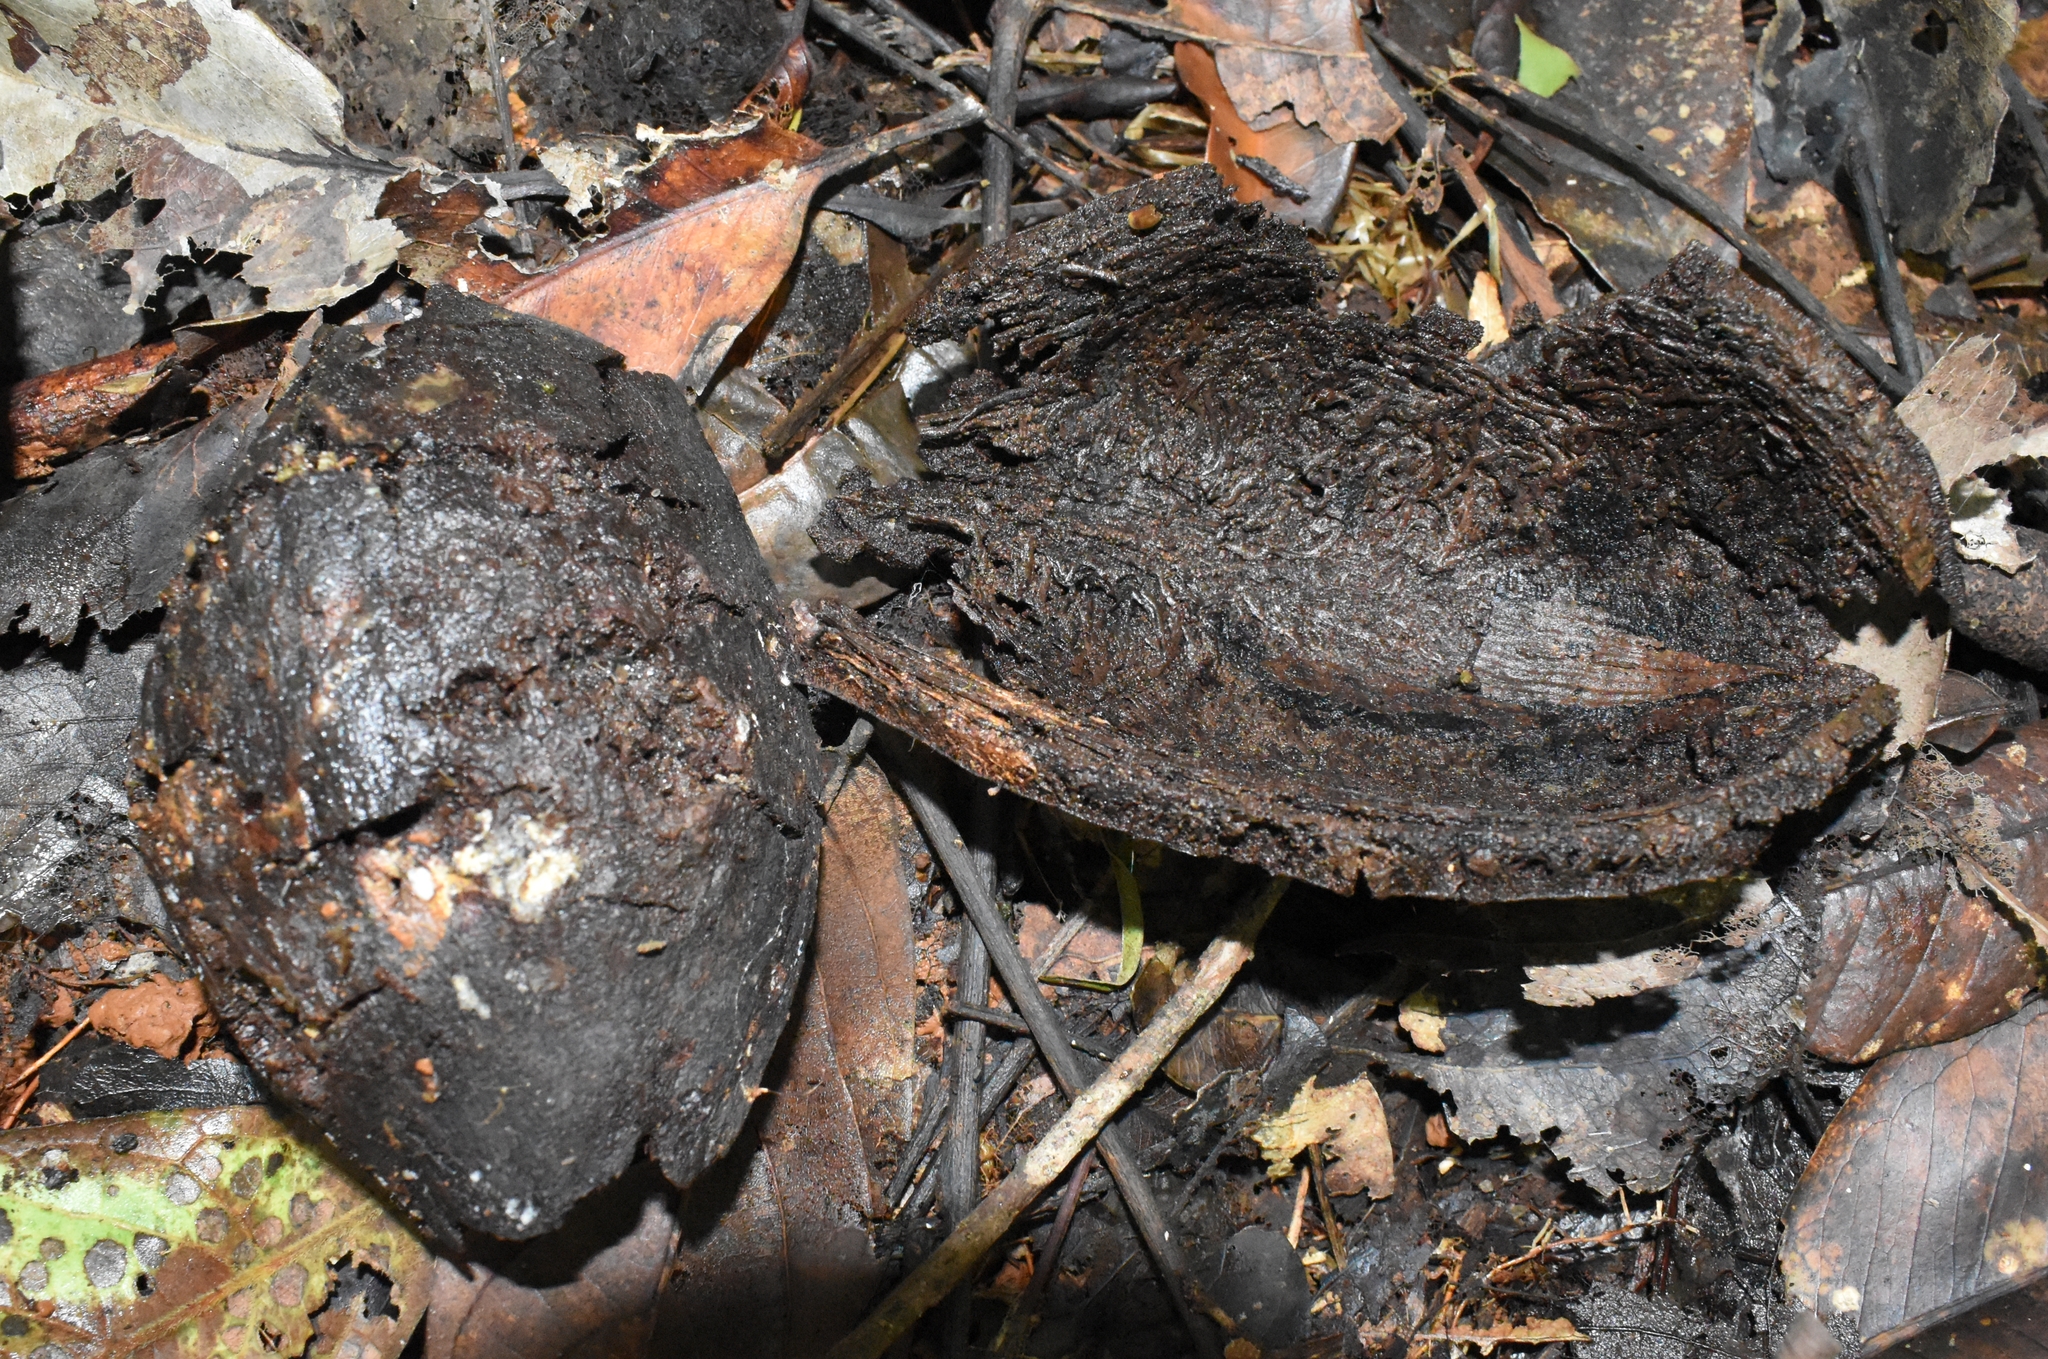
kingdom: Plantae
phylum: Tracheophyta
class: Magnoliopsida
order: Proteales
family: Proteaceae
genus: Cardwellia
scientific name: Cardwellia sublimis
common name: Bull oak
